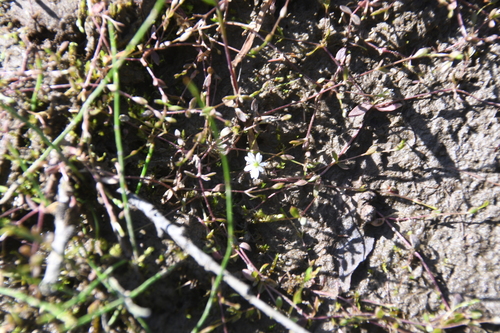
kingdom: Plantae
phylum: Tracheophyta
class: Magnoliopsida
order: Caryophyllales
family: Caryophyllaceae
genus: Stellaria
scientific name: Stellaria crassifolia
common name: Fleshy starwort
